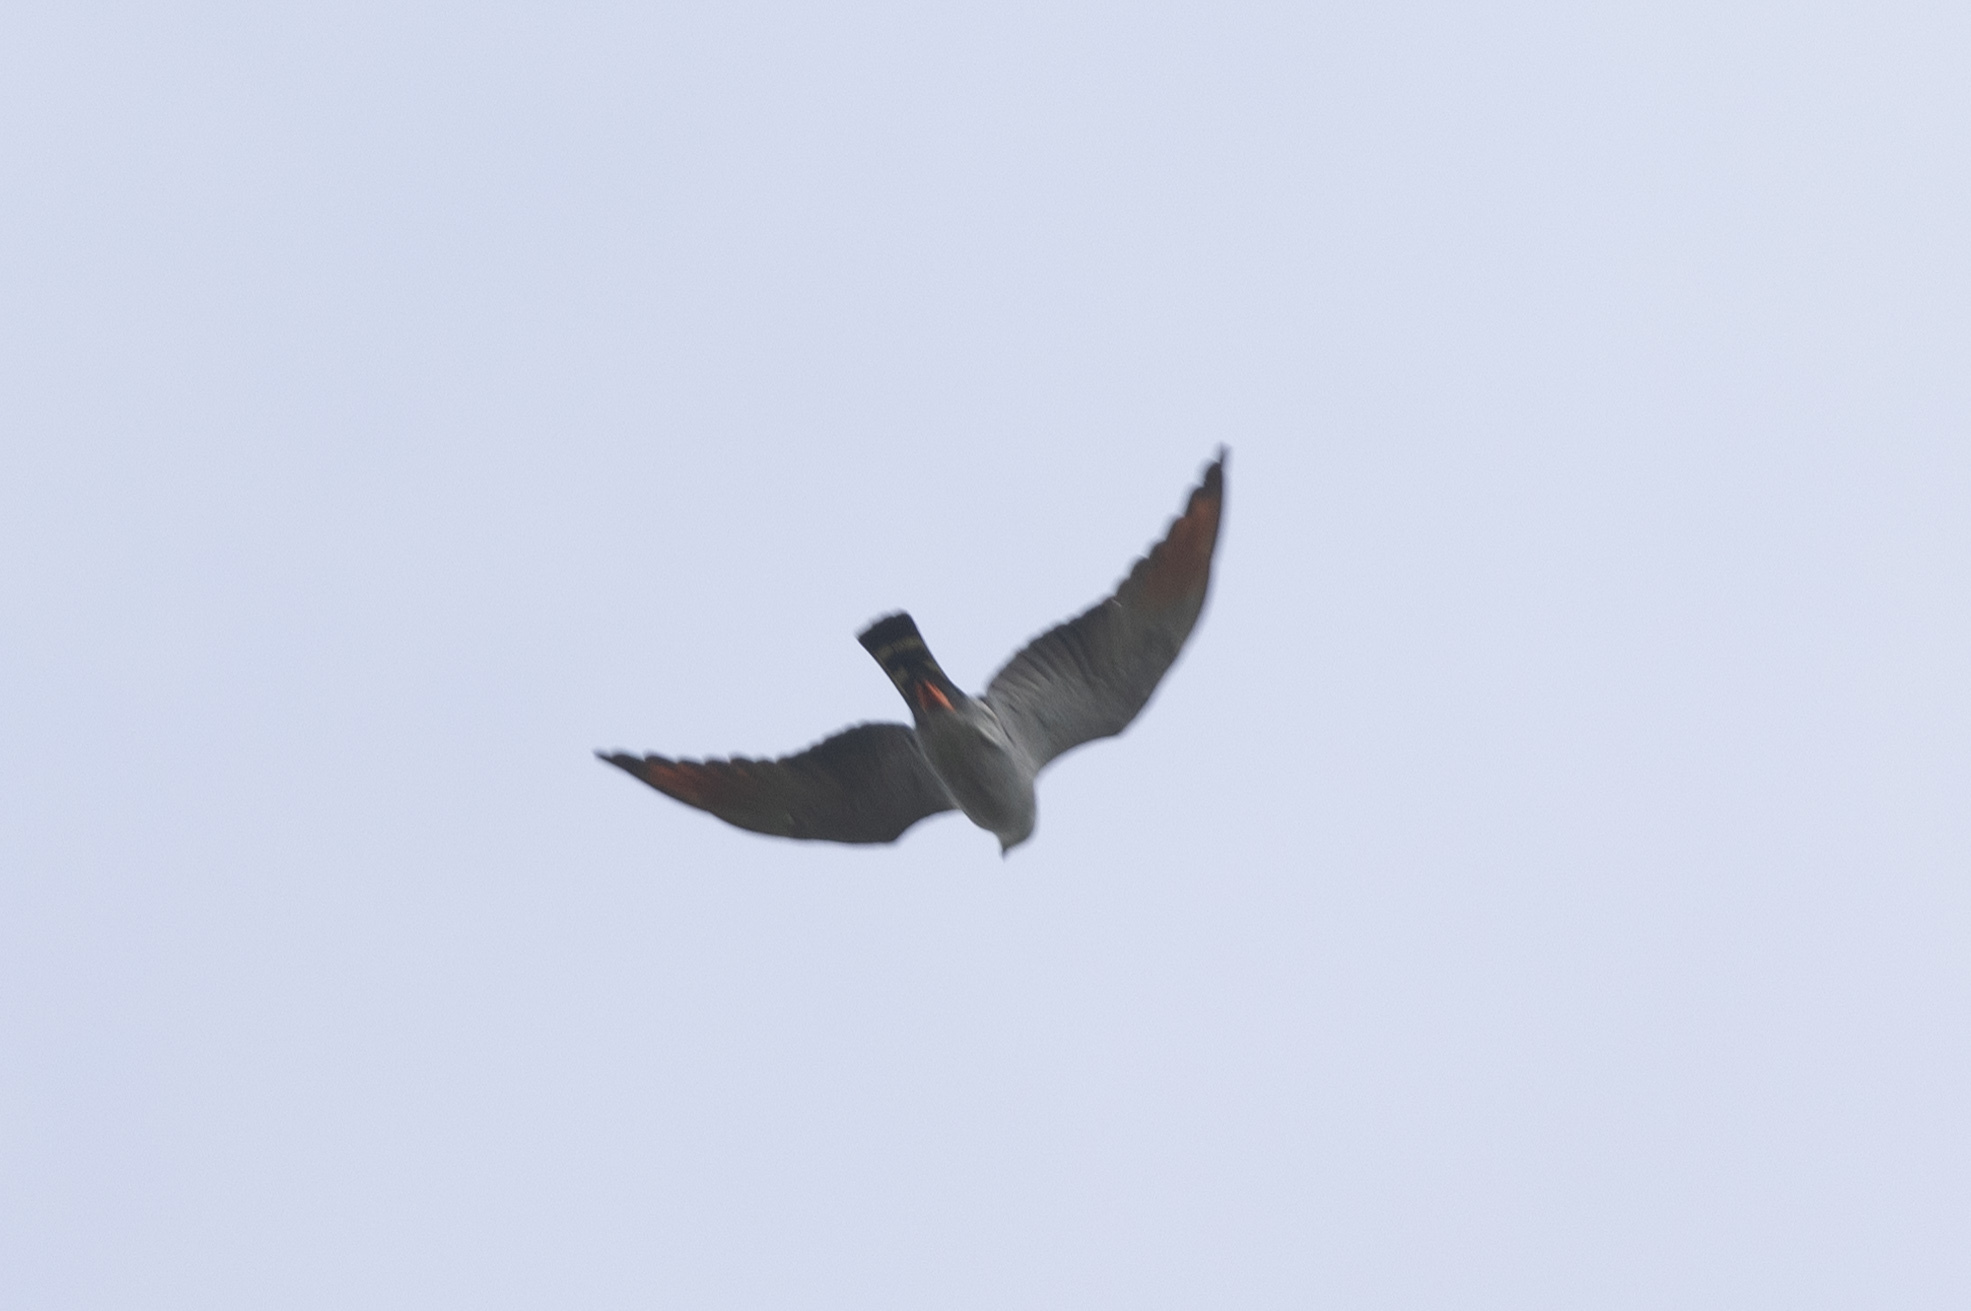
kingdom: Animalia
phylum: Chordata
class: Aves
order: Accipitriformes
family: Accipitridae
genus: Ictinia
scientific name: Ictinia plumbea
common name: Plumbeous kite
